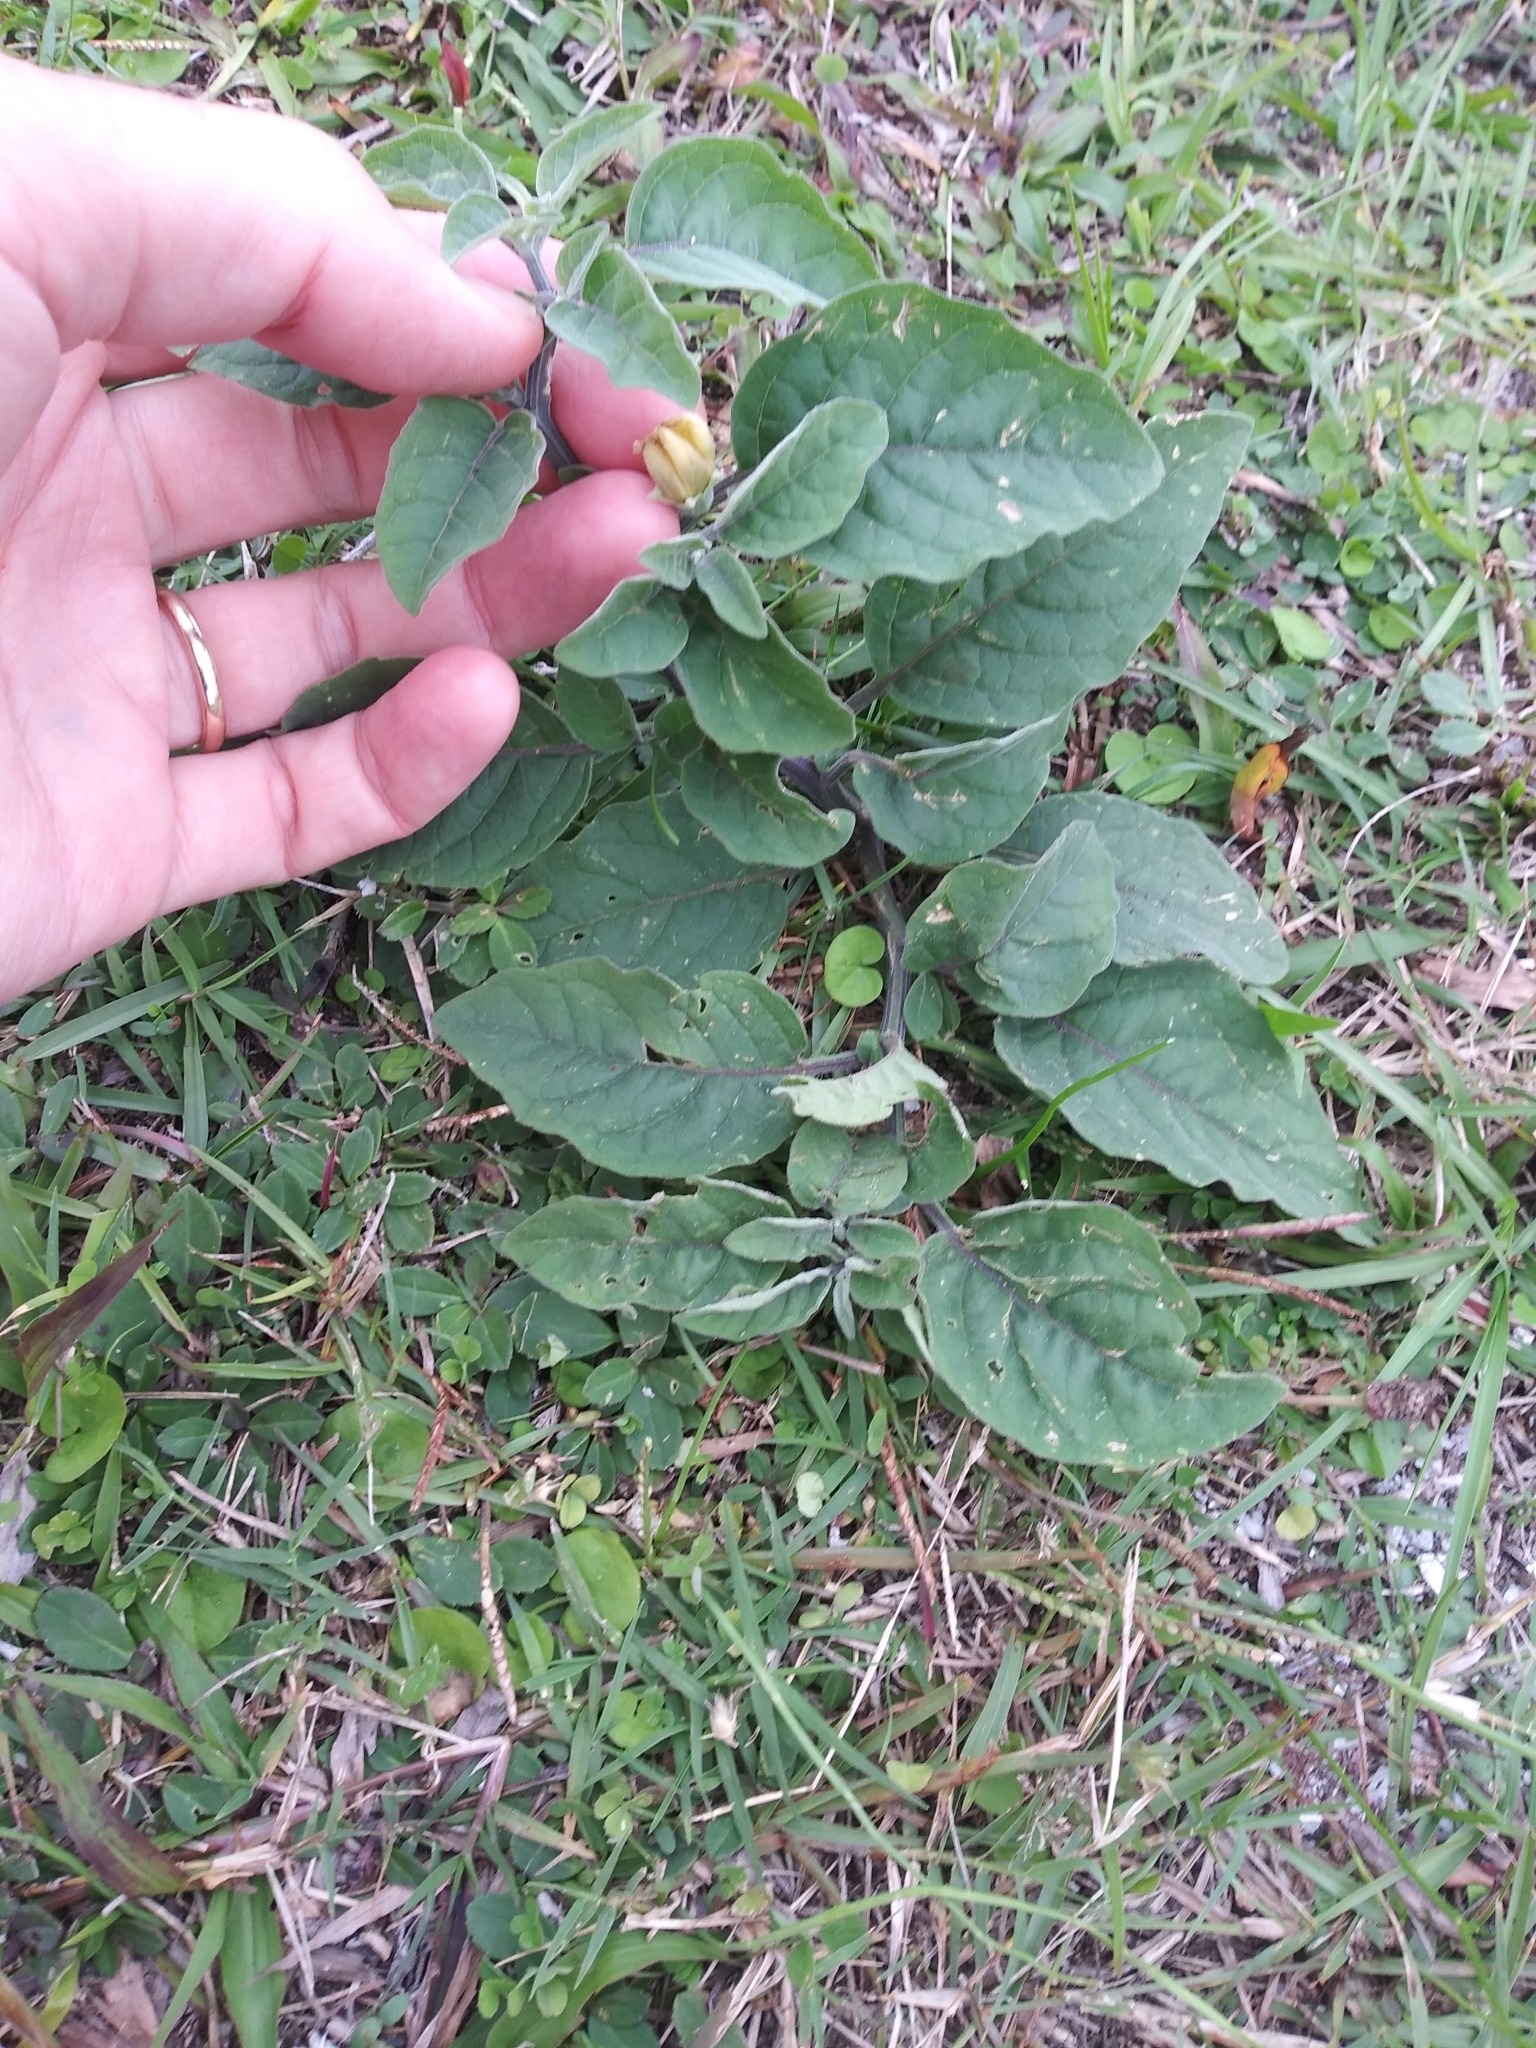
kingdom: Plantae
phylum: Tracheophyta
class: Magnoliopsida
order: Solanales
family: Solanaceae
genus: Physalis
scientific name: Physalis walteri
